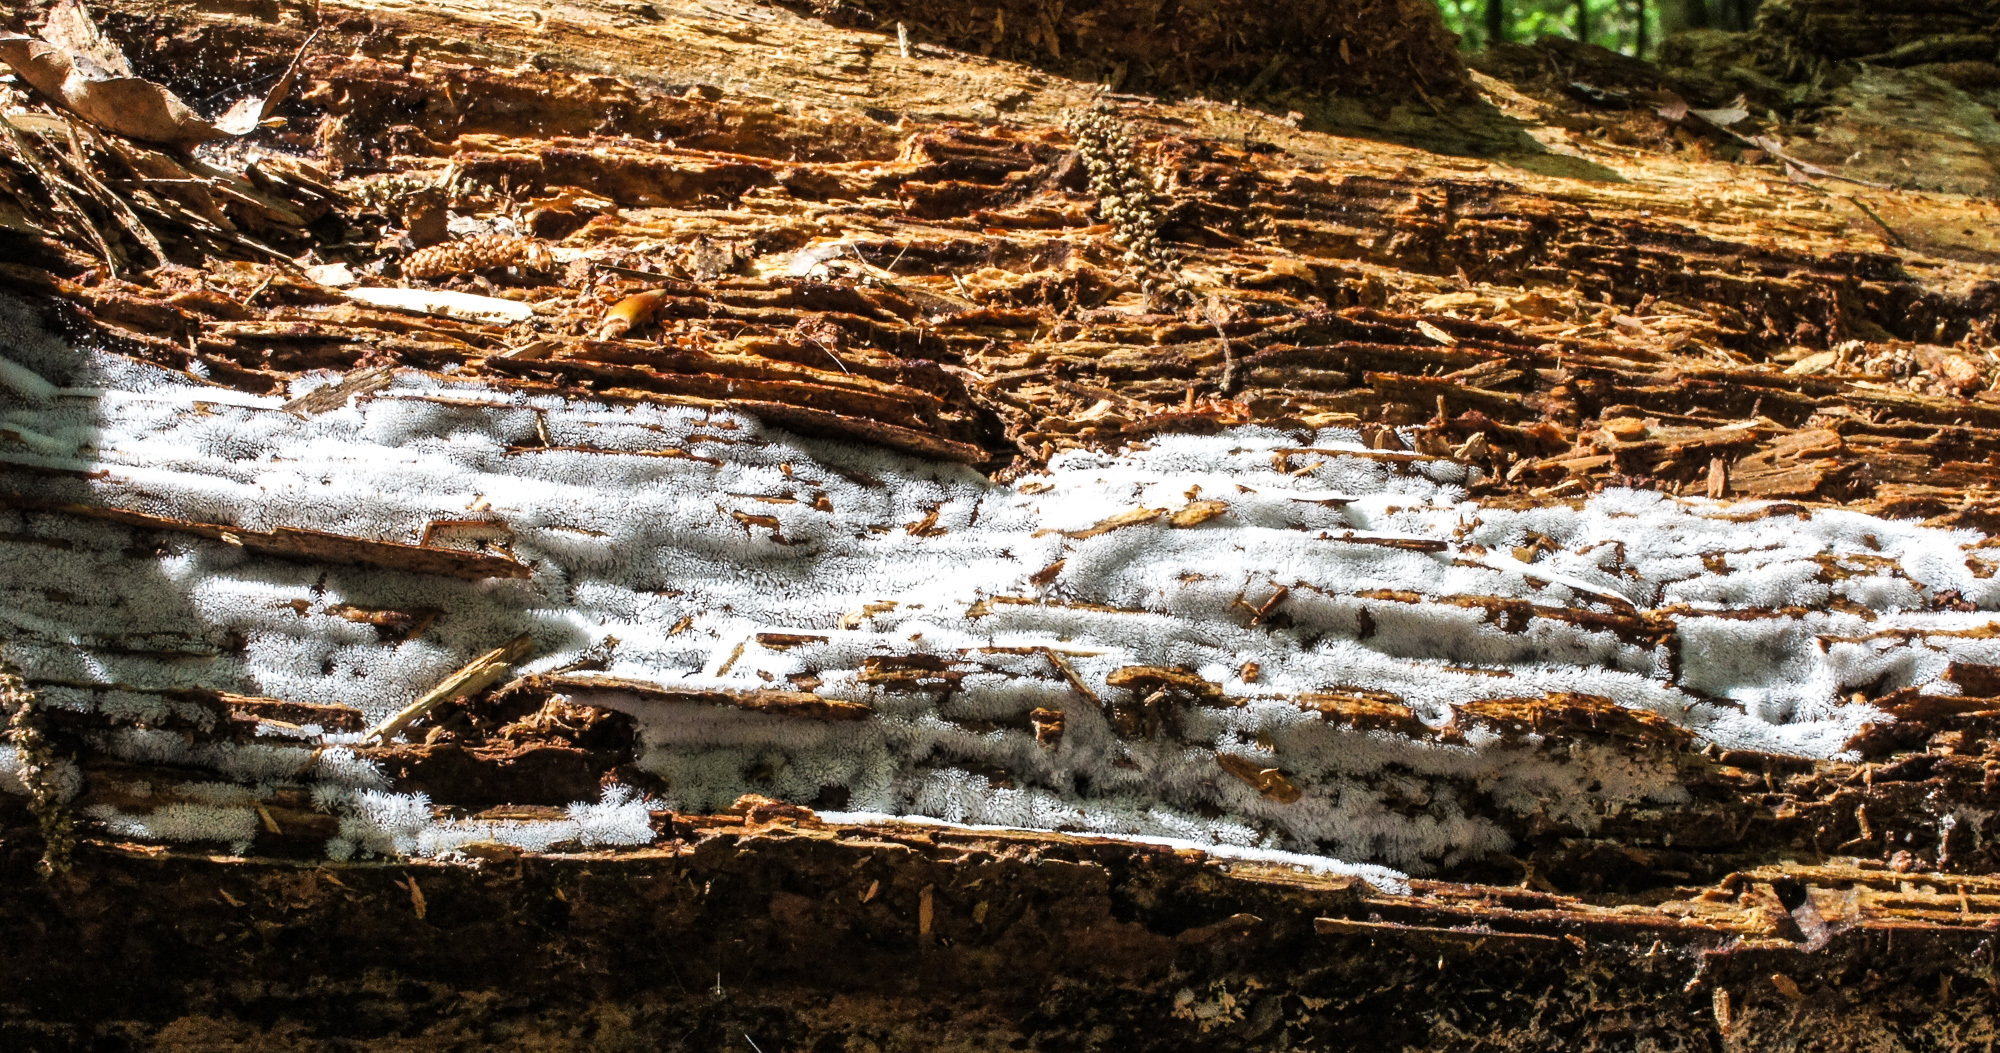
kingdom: Protozoa
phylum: Mycetozoa
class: Protosteliomycetes
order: Ceratiomyxales
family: Ceratiomyxaceae
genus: Ceratiomyxa
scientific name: Ceratiomyxa fruticulosa
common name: Honeycomb coral slime mold
